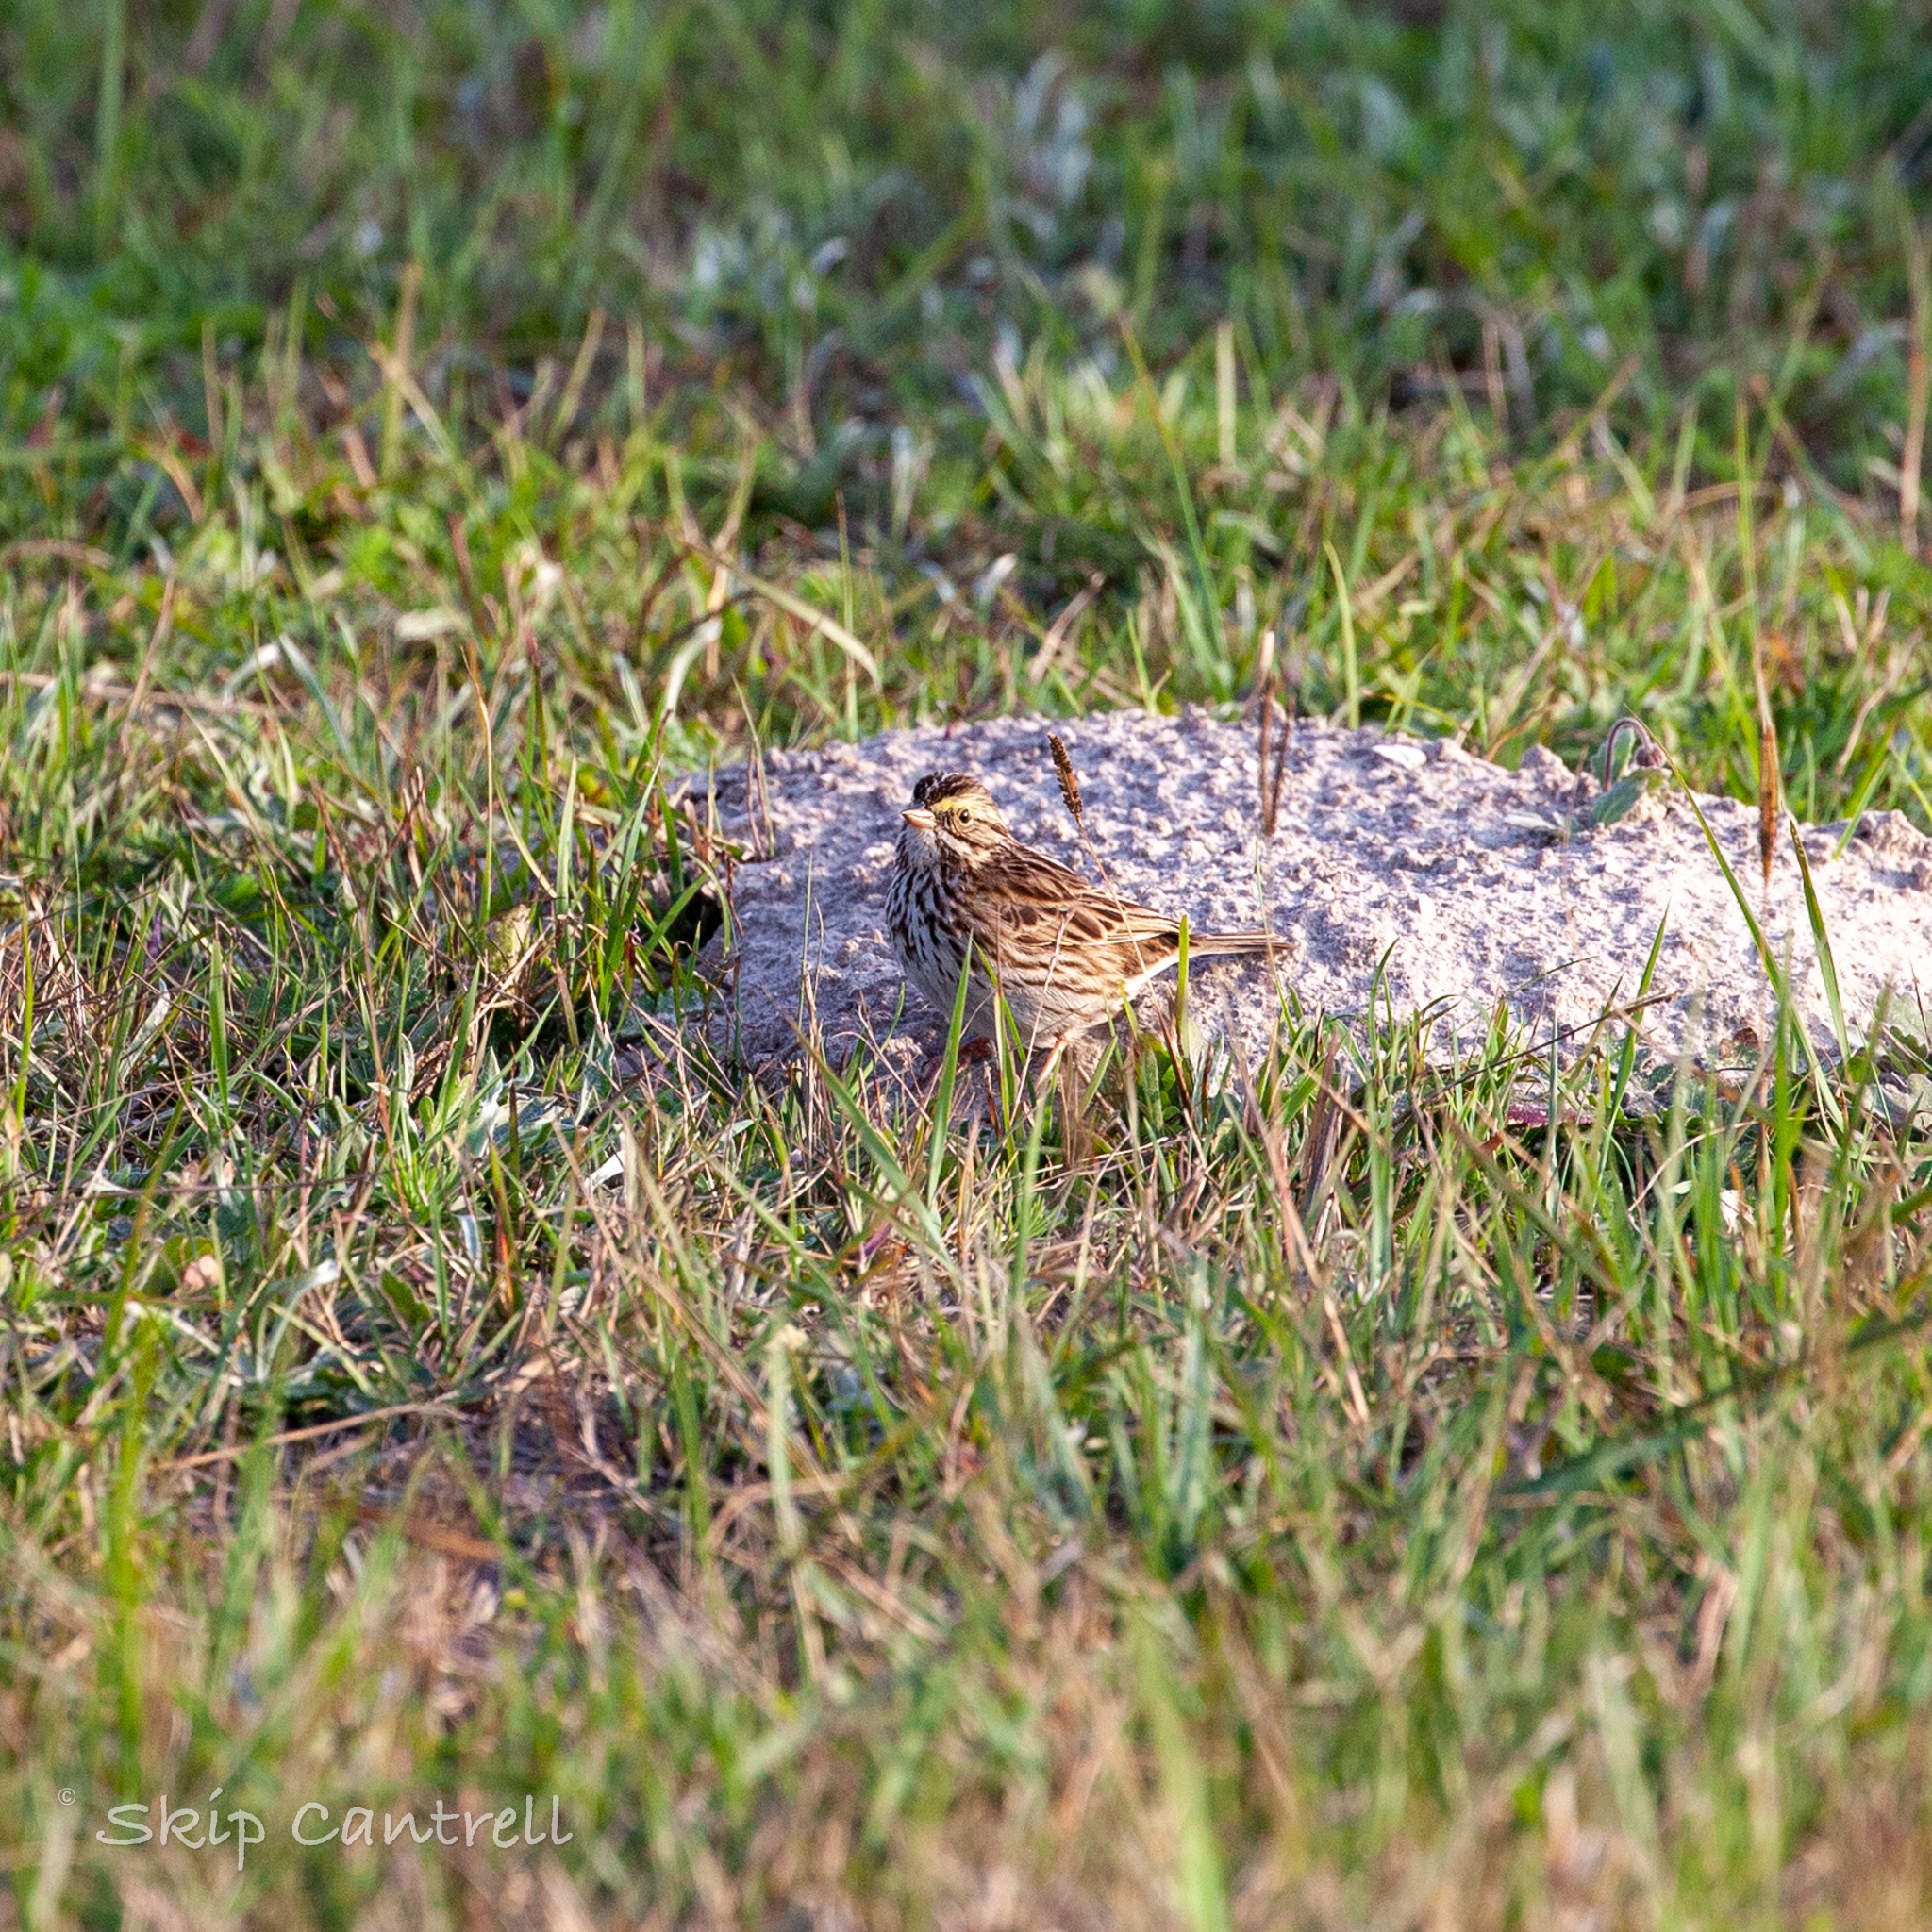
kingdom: Animalia
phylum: Chordata
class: Aves
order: Passeriformes
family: Passerellidae
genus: Passerculus
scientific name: Passerculus sandwichensis
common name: Savannah sparrow
